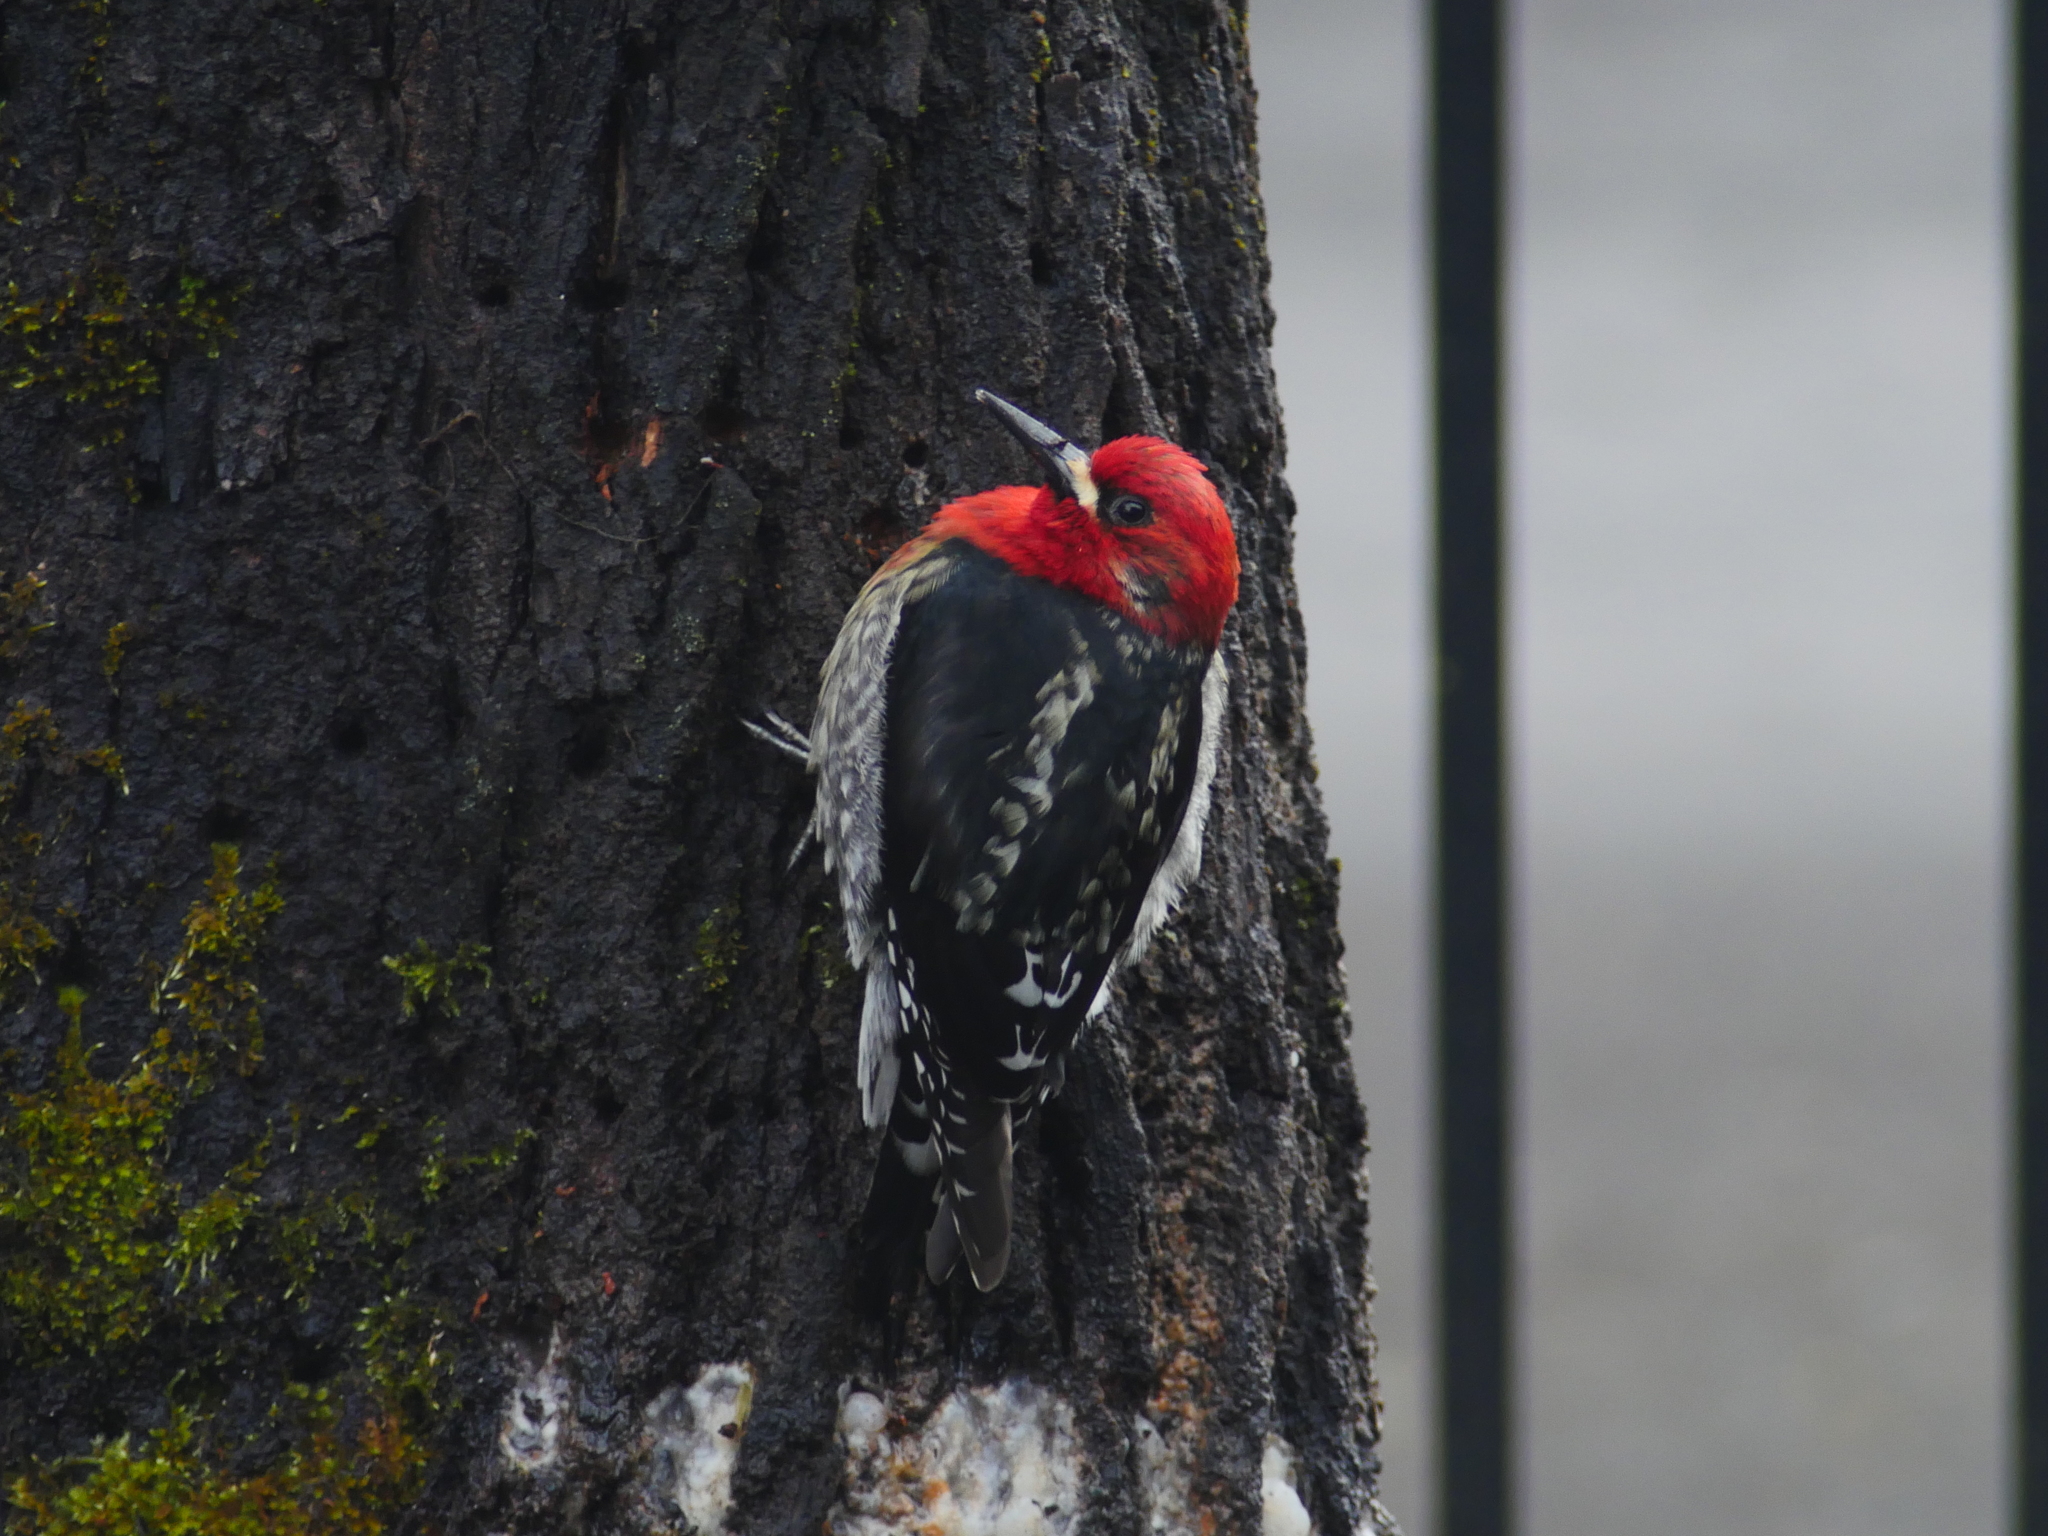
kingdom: Animalia
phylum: Chordata
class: Aves
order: Piciformes
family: Picidae
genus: Sphyrapicus
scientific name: Sphyrapicus ruber
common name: Red-breasted sapsucker
